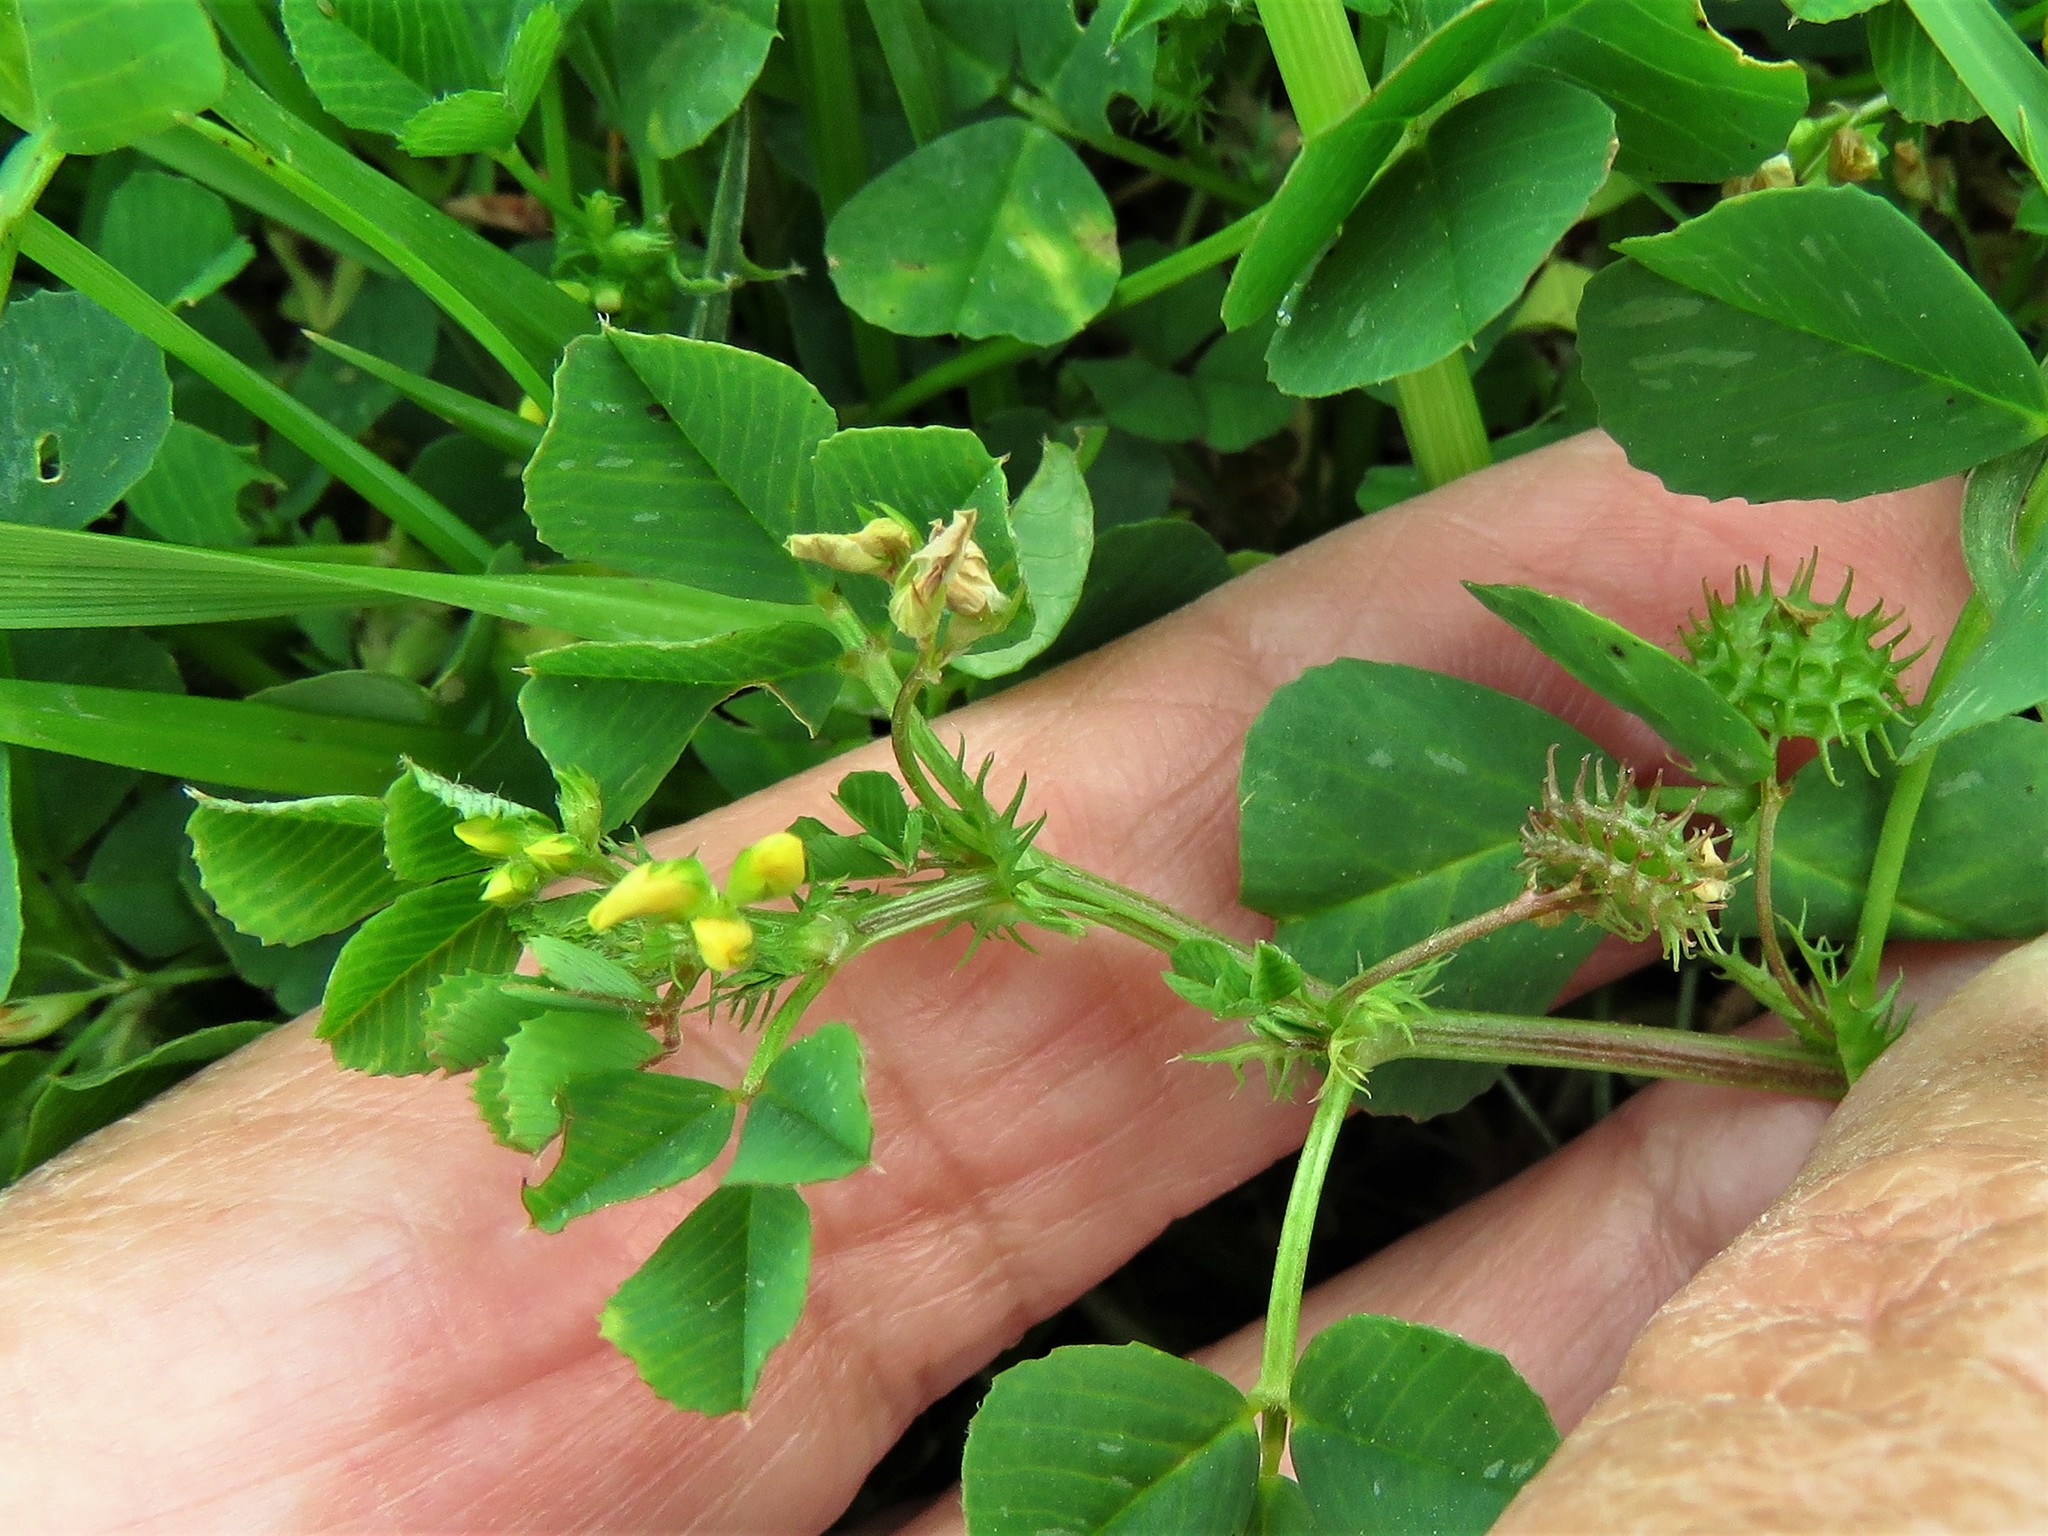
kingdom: Plantae
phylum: Tracheophyta
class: Magnoliopsida
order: Fabales
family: Fabaceae
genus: Medicago
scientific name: Medicago polymorpha
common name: Burclover
